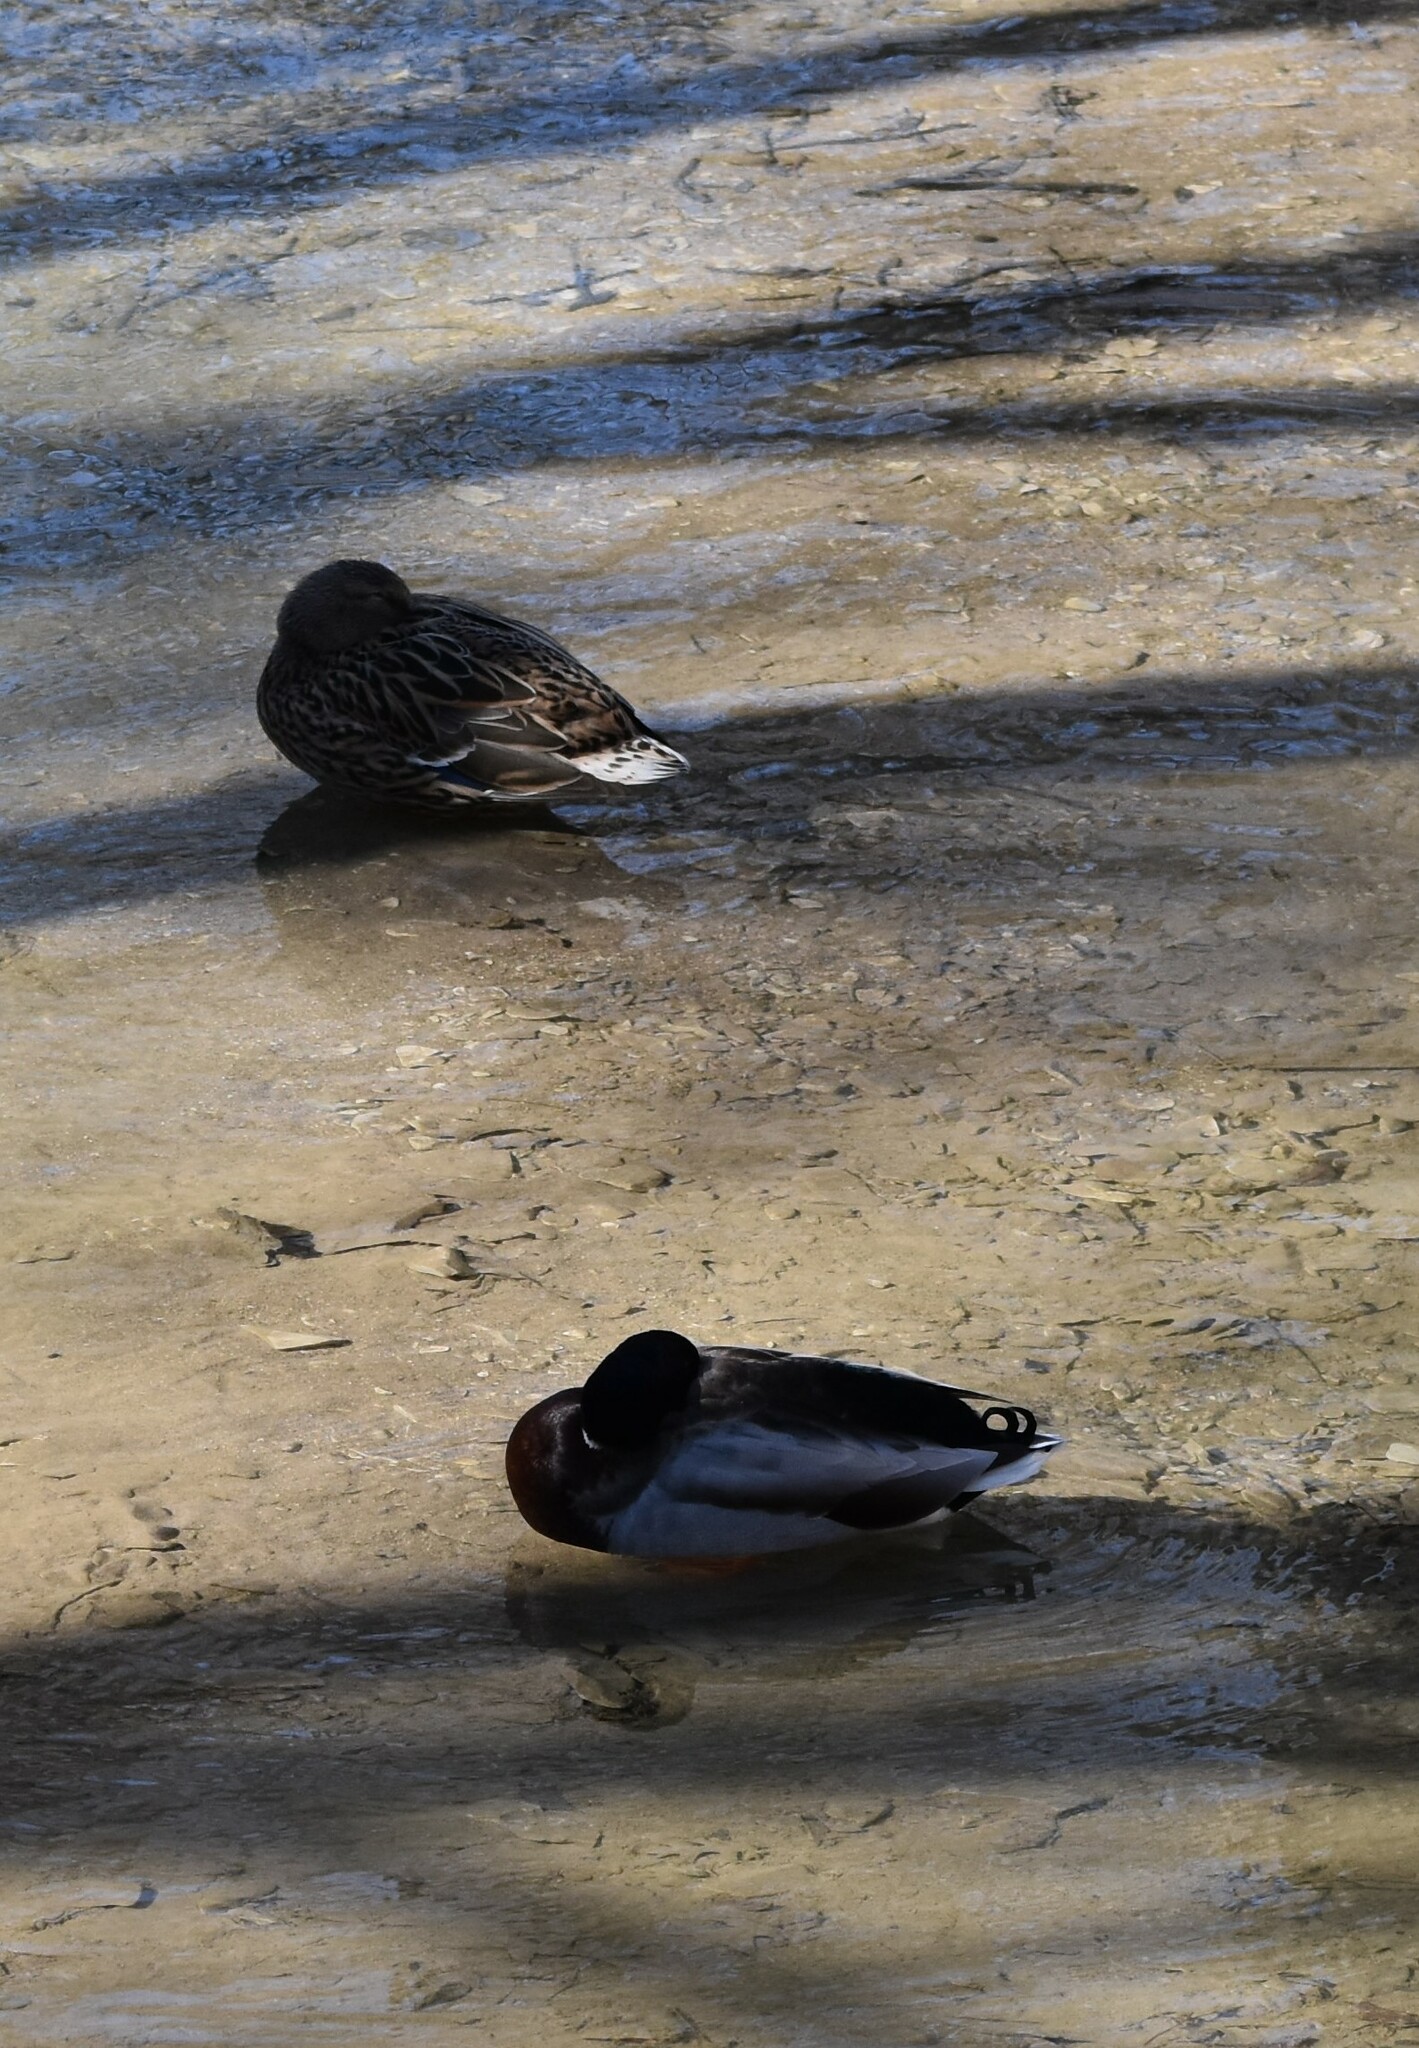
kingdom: Animalia
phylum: Chordata
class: Aves
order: Anseriformes
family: Anatidae
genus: Anas
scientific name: Anas platyrhynchos
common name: Mallard
